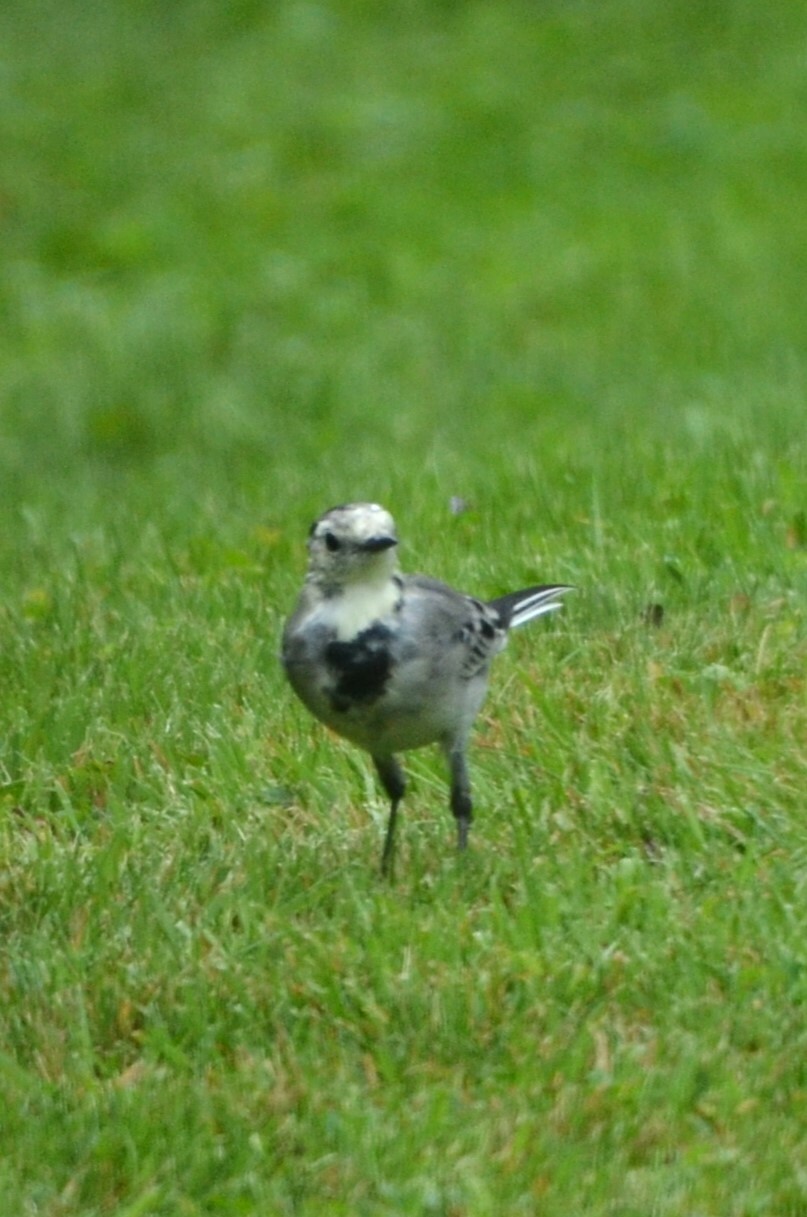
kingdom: Animalia
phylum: Chordata
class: Aves
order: Passeriformes
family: Motacillidae
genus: Motacilla
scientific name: Motacilla alba
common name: White wagtail
